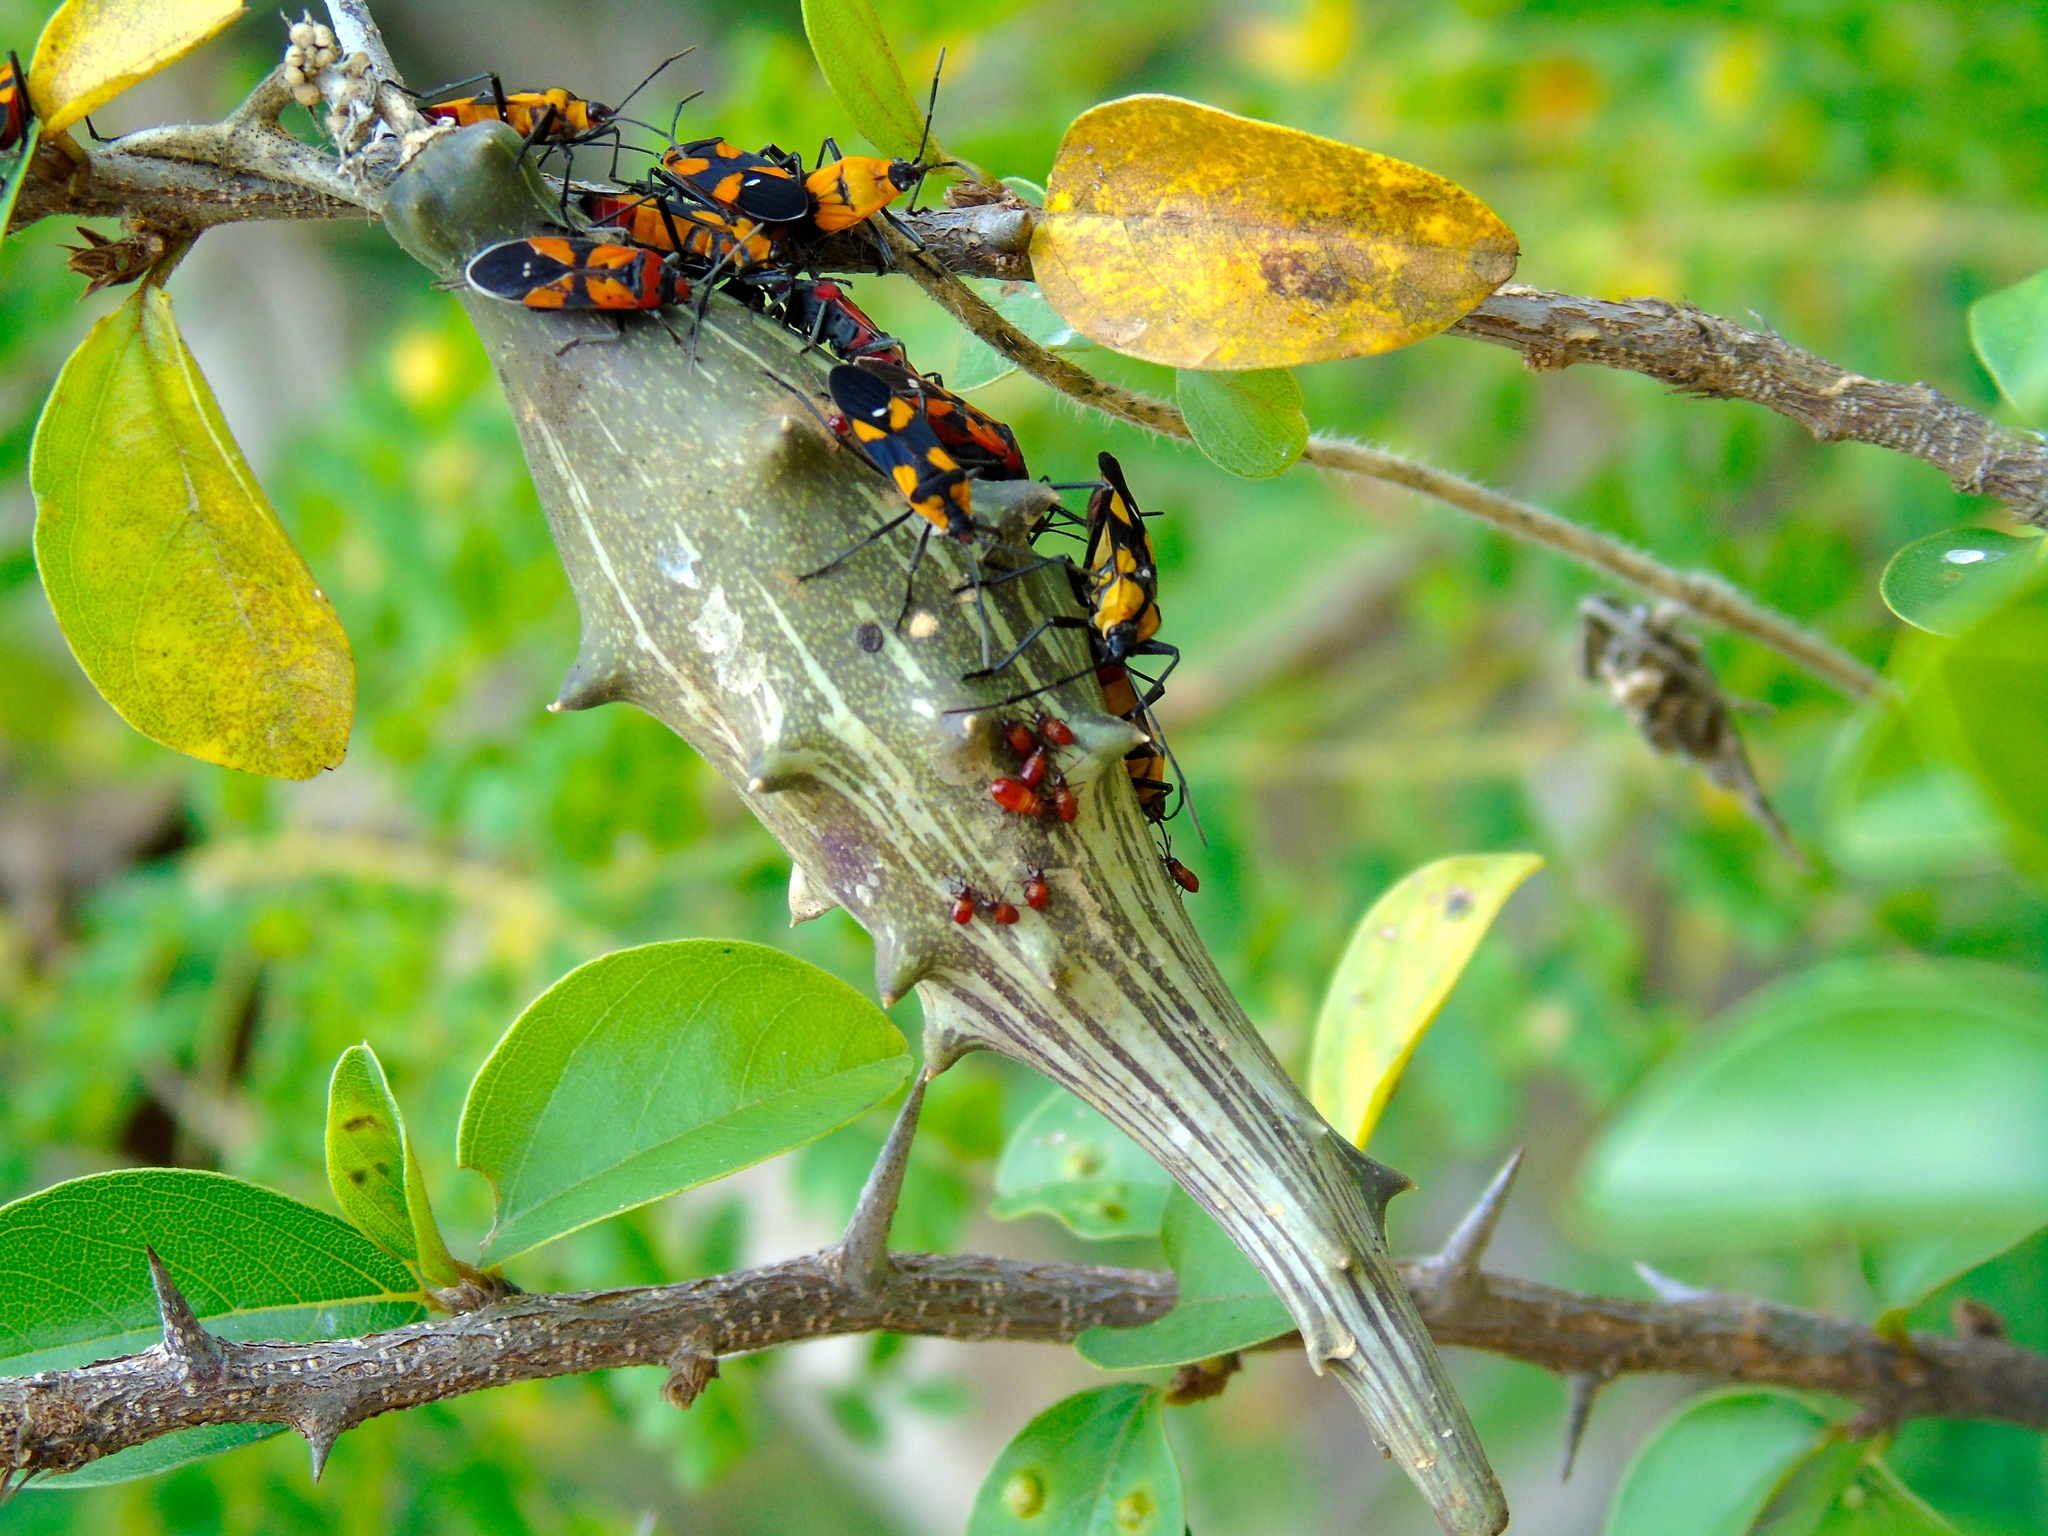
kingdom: Animalia
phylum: Arthropoda
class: Insecta
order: Hemiptera
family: Lygaeidae
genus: Lygaeus
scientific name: Lygaeus analis
